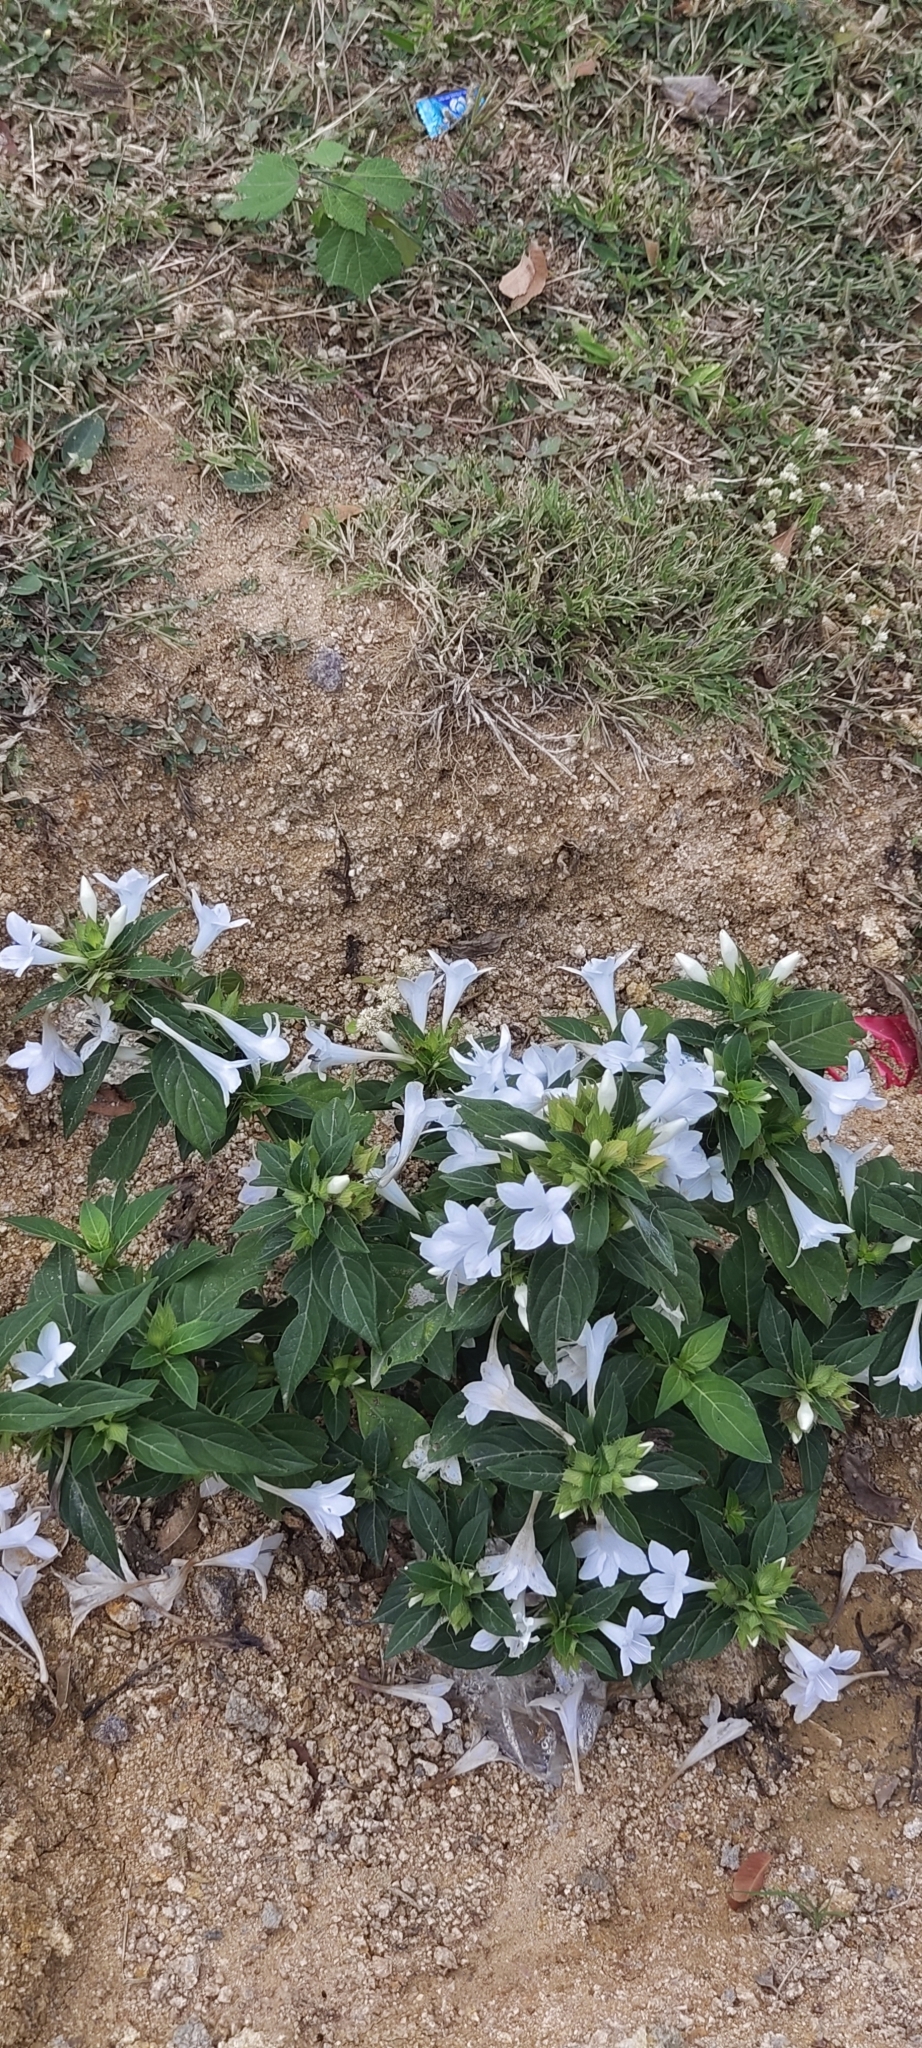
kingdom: Plantae
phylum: Tracheophyta
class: Magnoliopsida
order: Lamiales
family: Acanthaceae
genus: Barleria
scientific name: Barleria cristata
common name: Crested philippine violet
